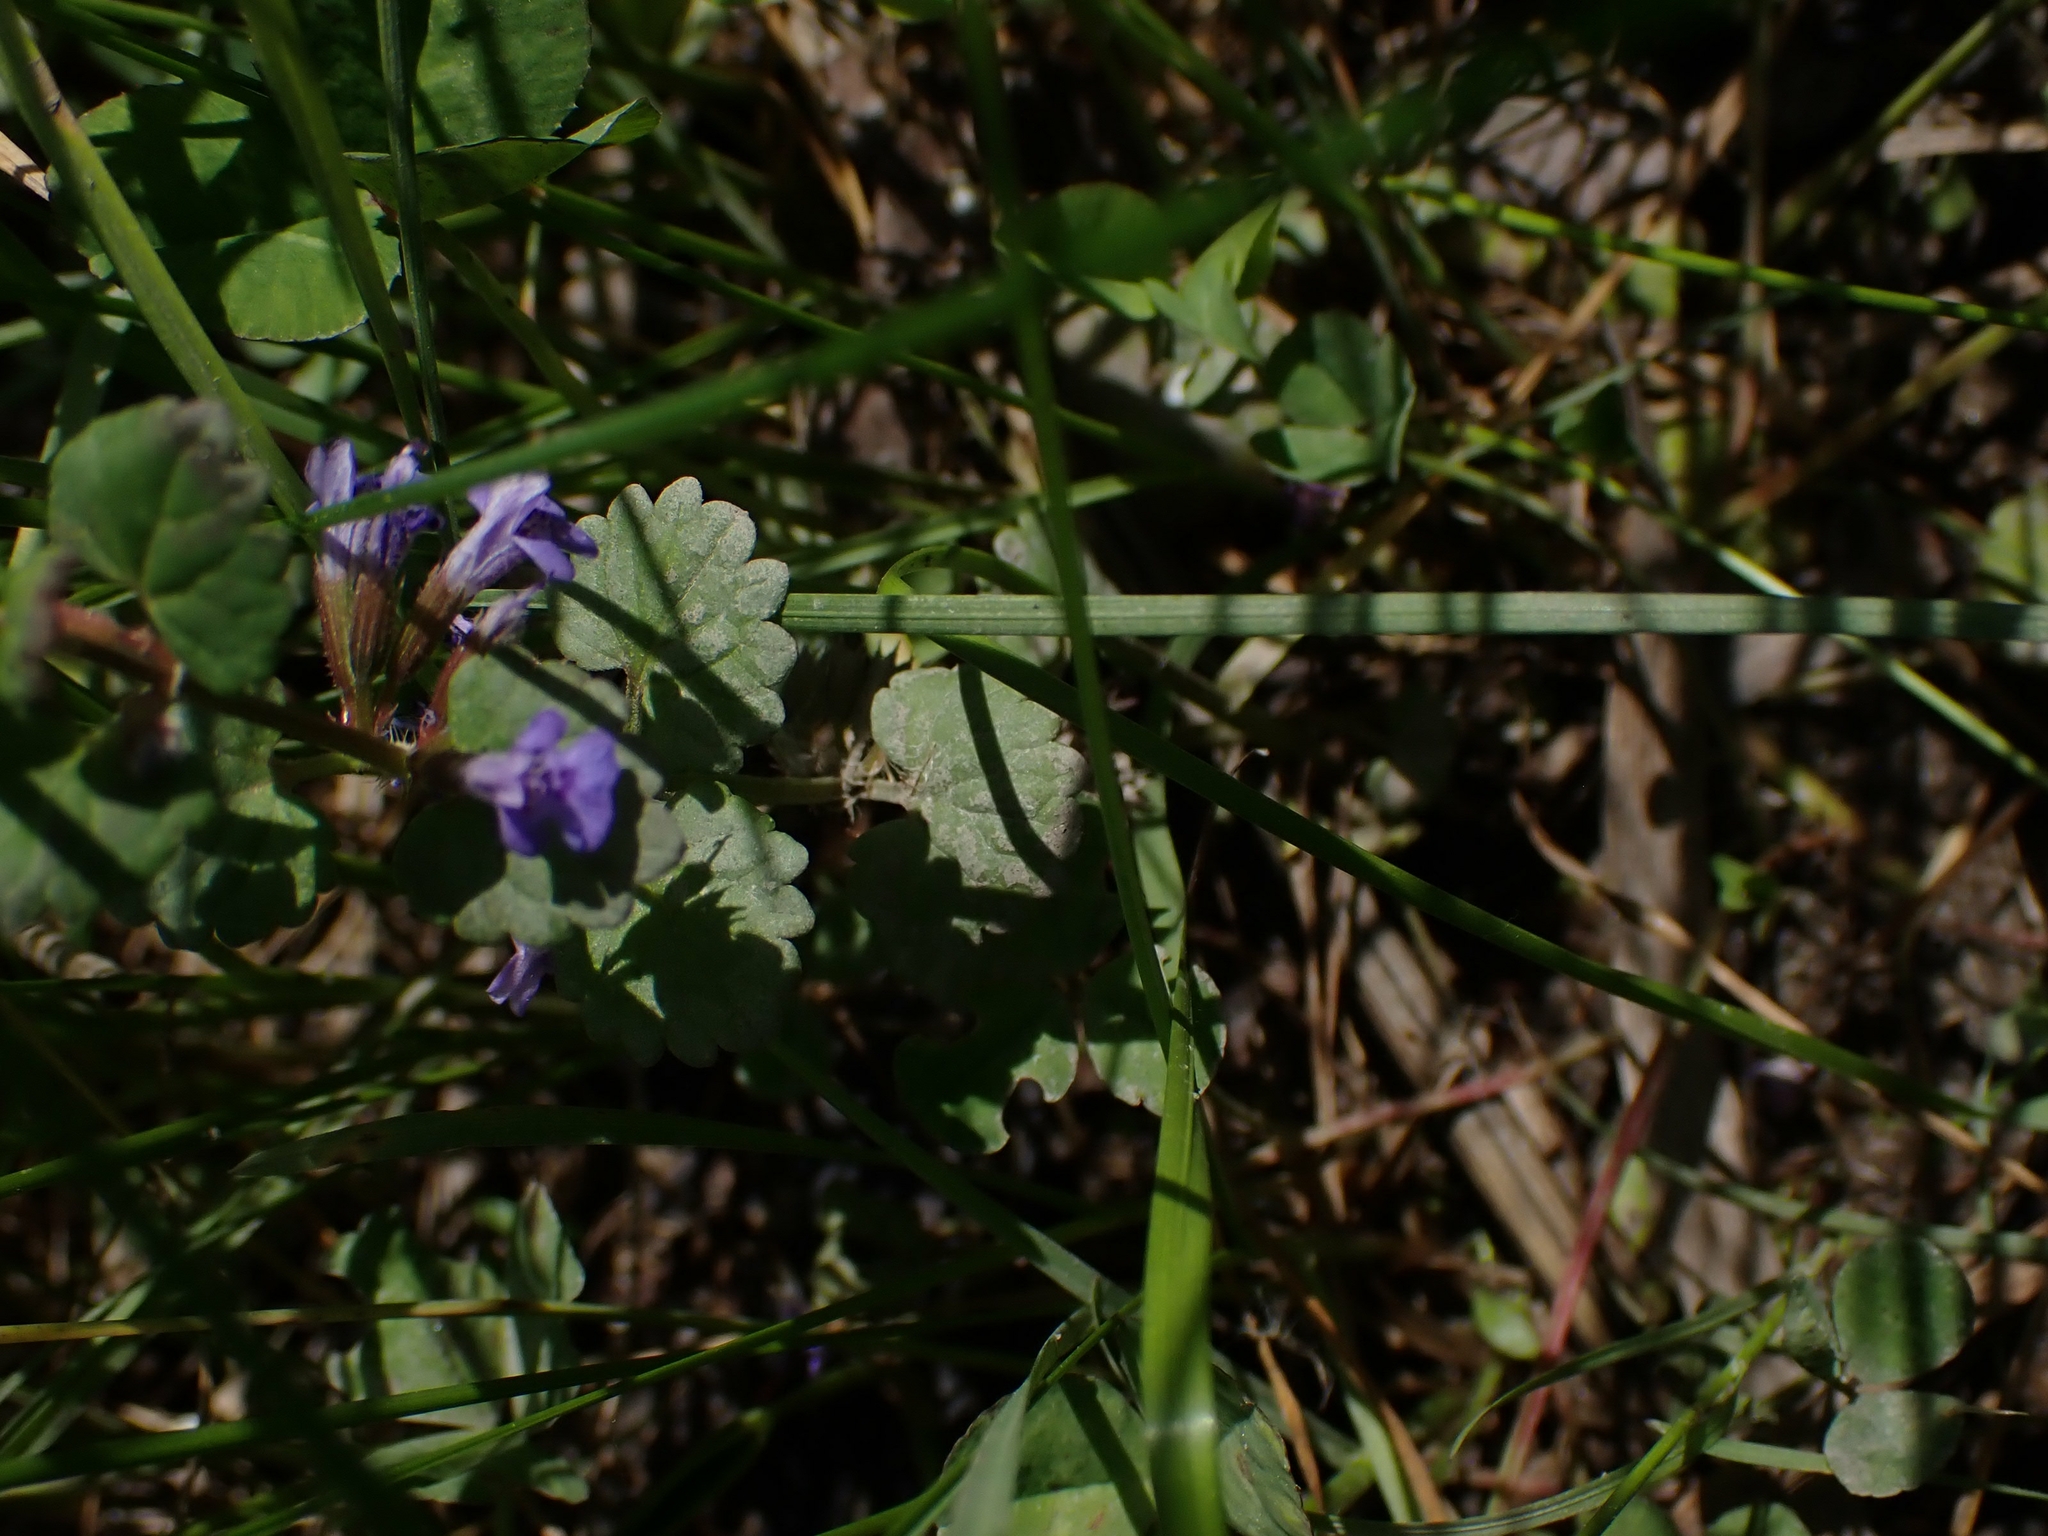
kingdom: Plantae
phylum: Tracheophyta
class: Magnoliopsida
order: Lamiales
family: Lamiaceae
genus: Glechoma
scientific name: Glechoma hederacea
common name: Ground ivy
